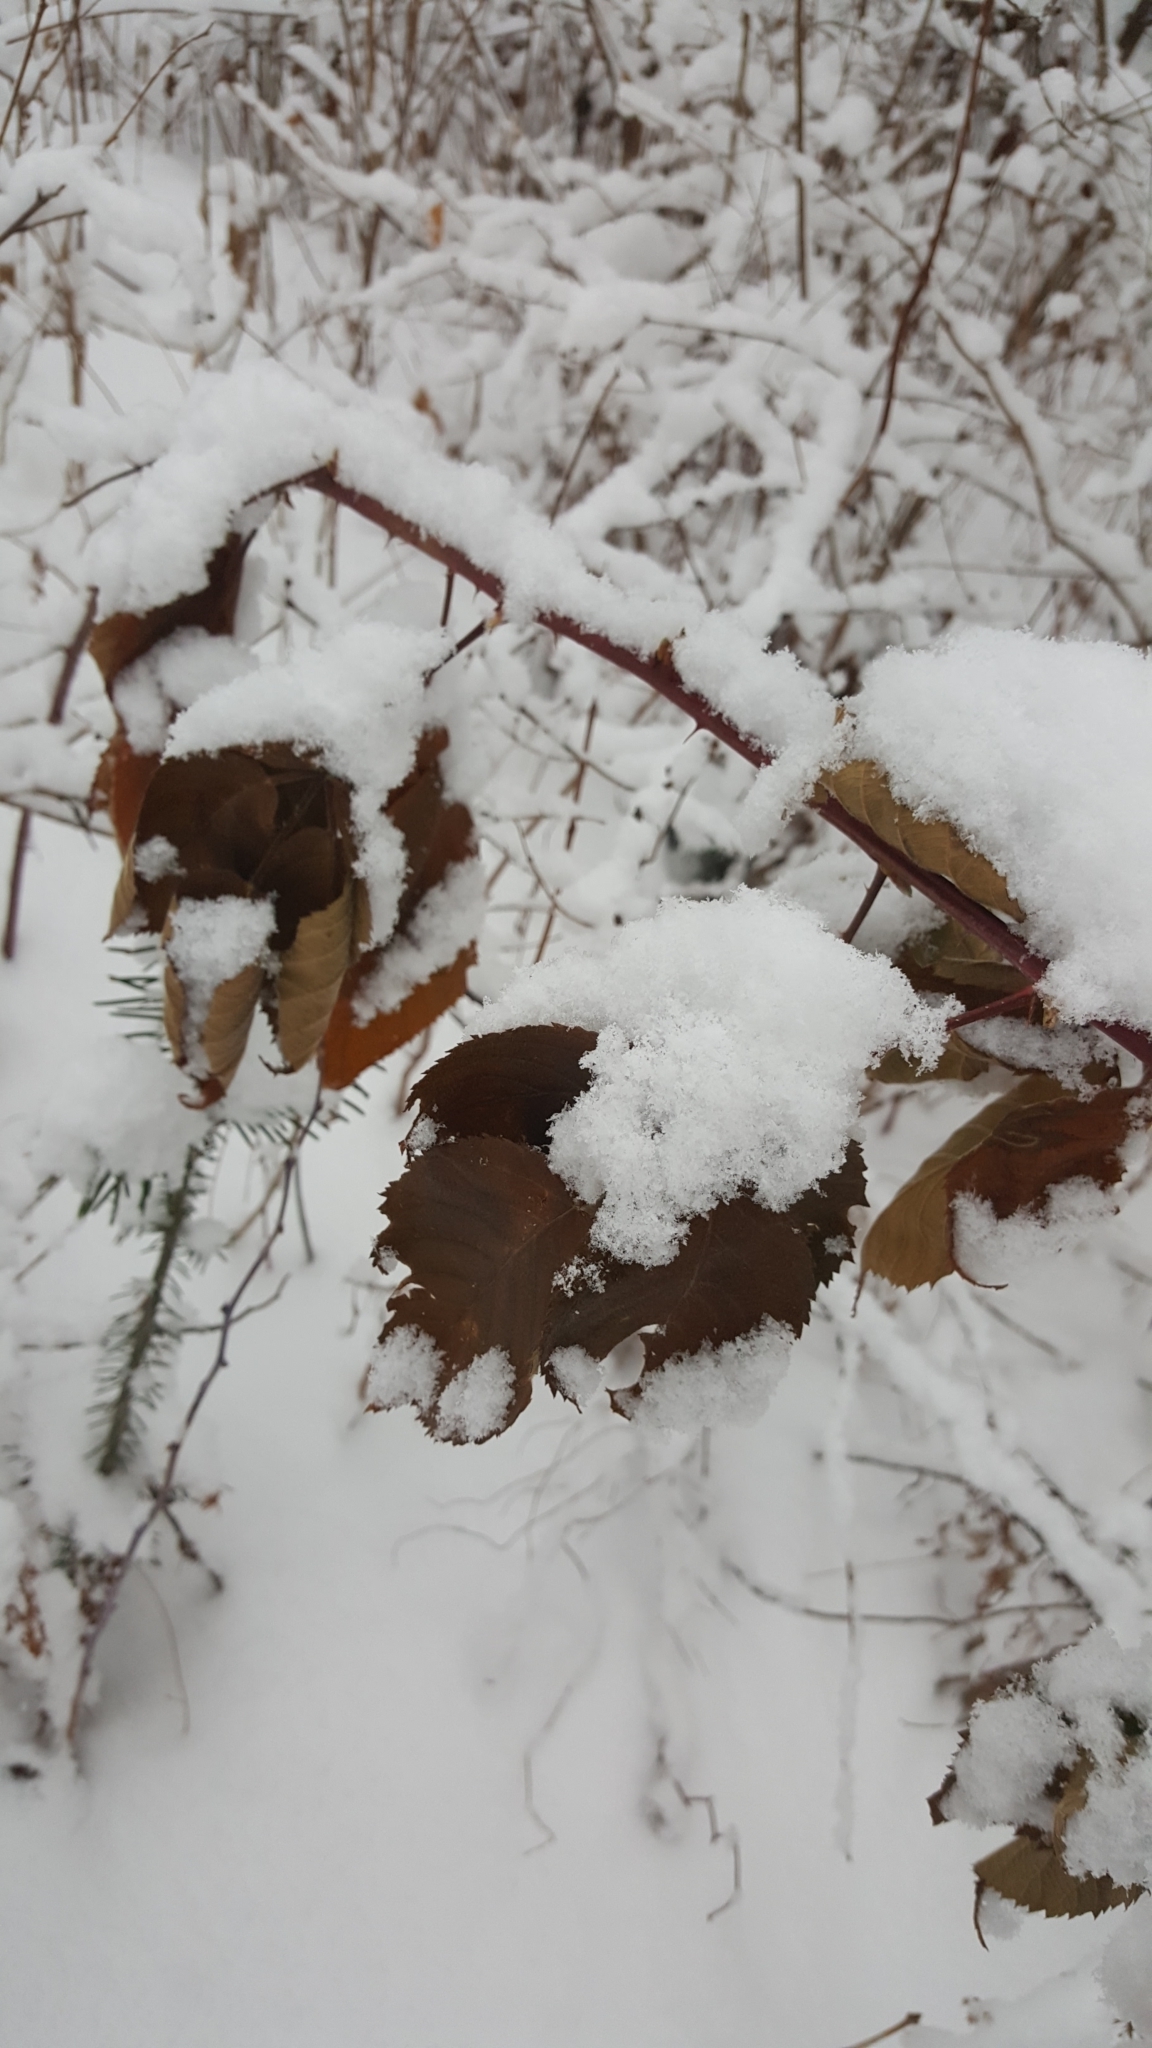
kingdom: Plantae
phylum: Tracheophyta
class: Magnoliopsida
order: Rosales
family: Rosaceae
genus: Rubus
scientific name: Rubus allegheniensis
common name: Allegheny blackberry
